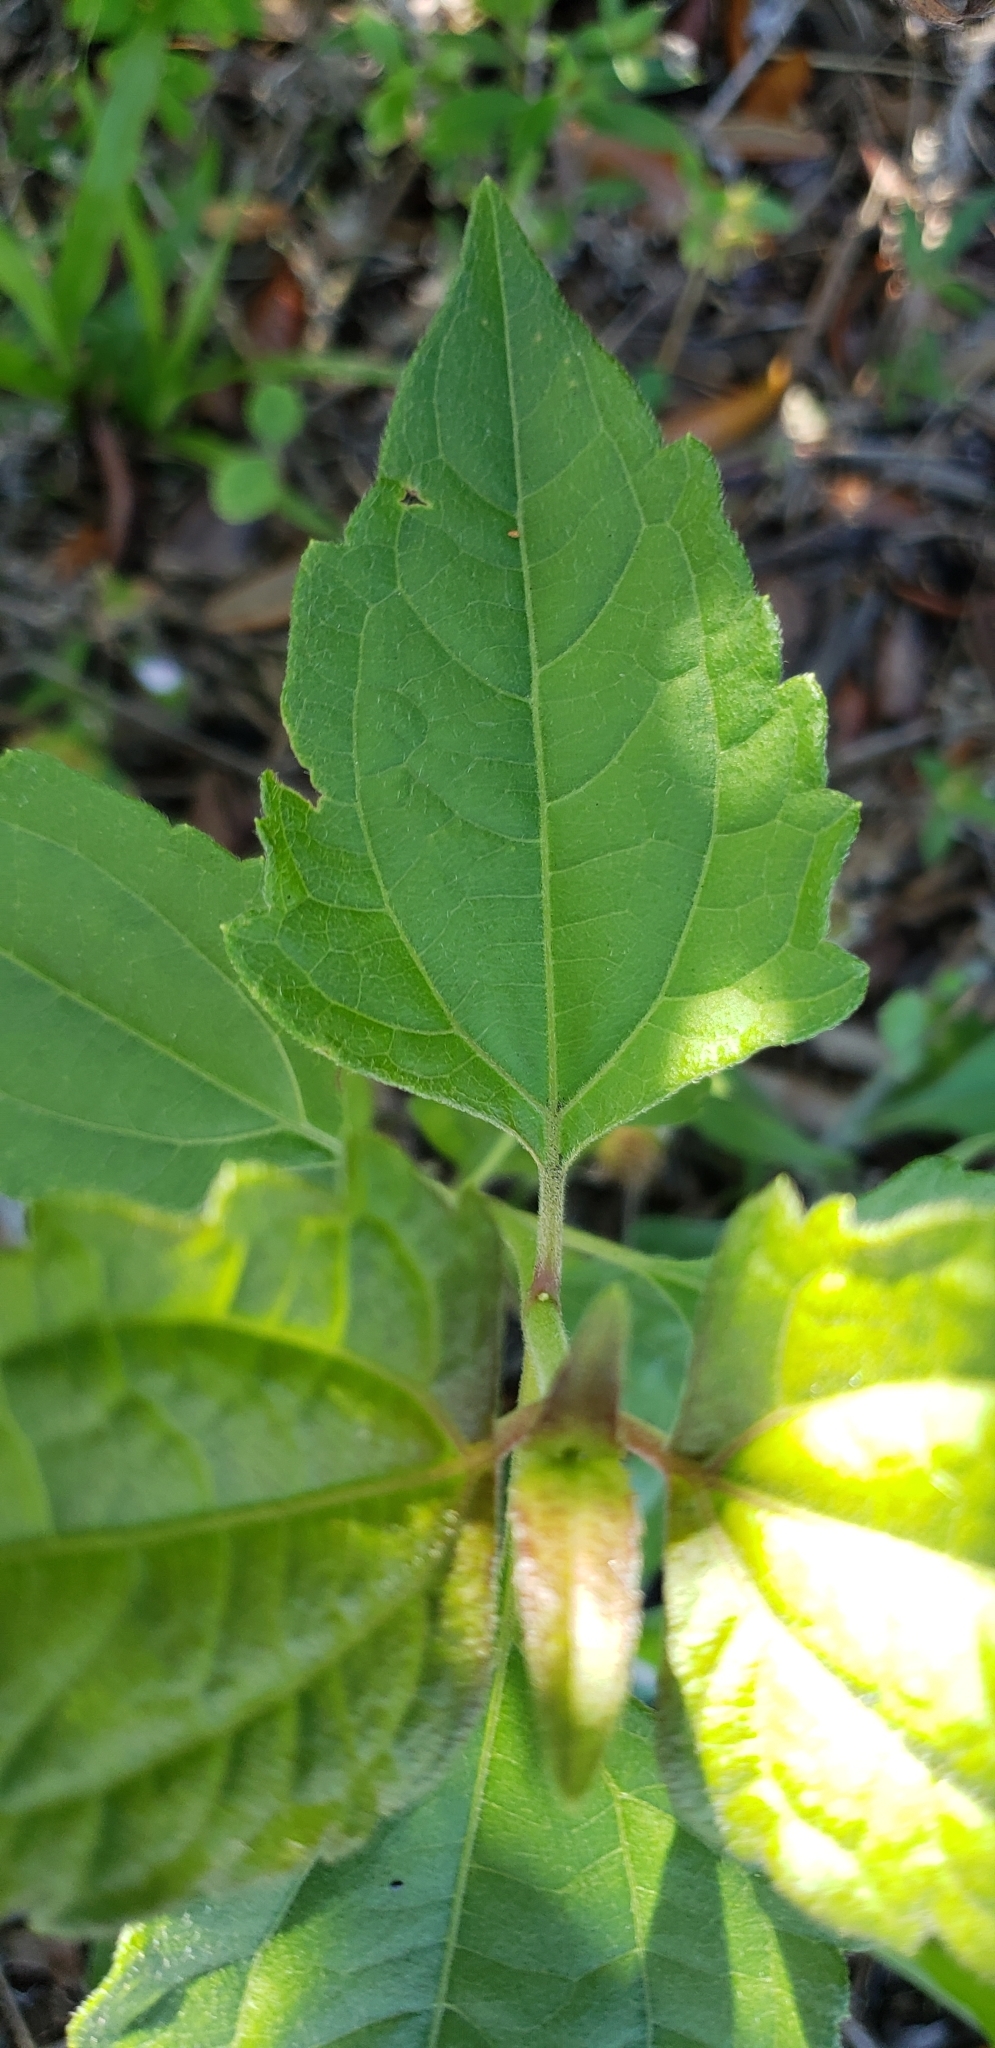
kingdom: Plantae
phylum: Tracheophyta
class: Magnoliopsida
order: Asterales
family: Asteraceae
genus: Chromolaena
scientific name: Chromolaena odorata
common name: Siamweed
